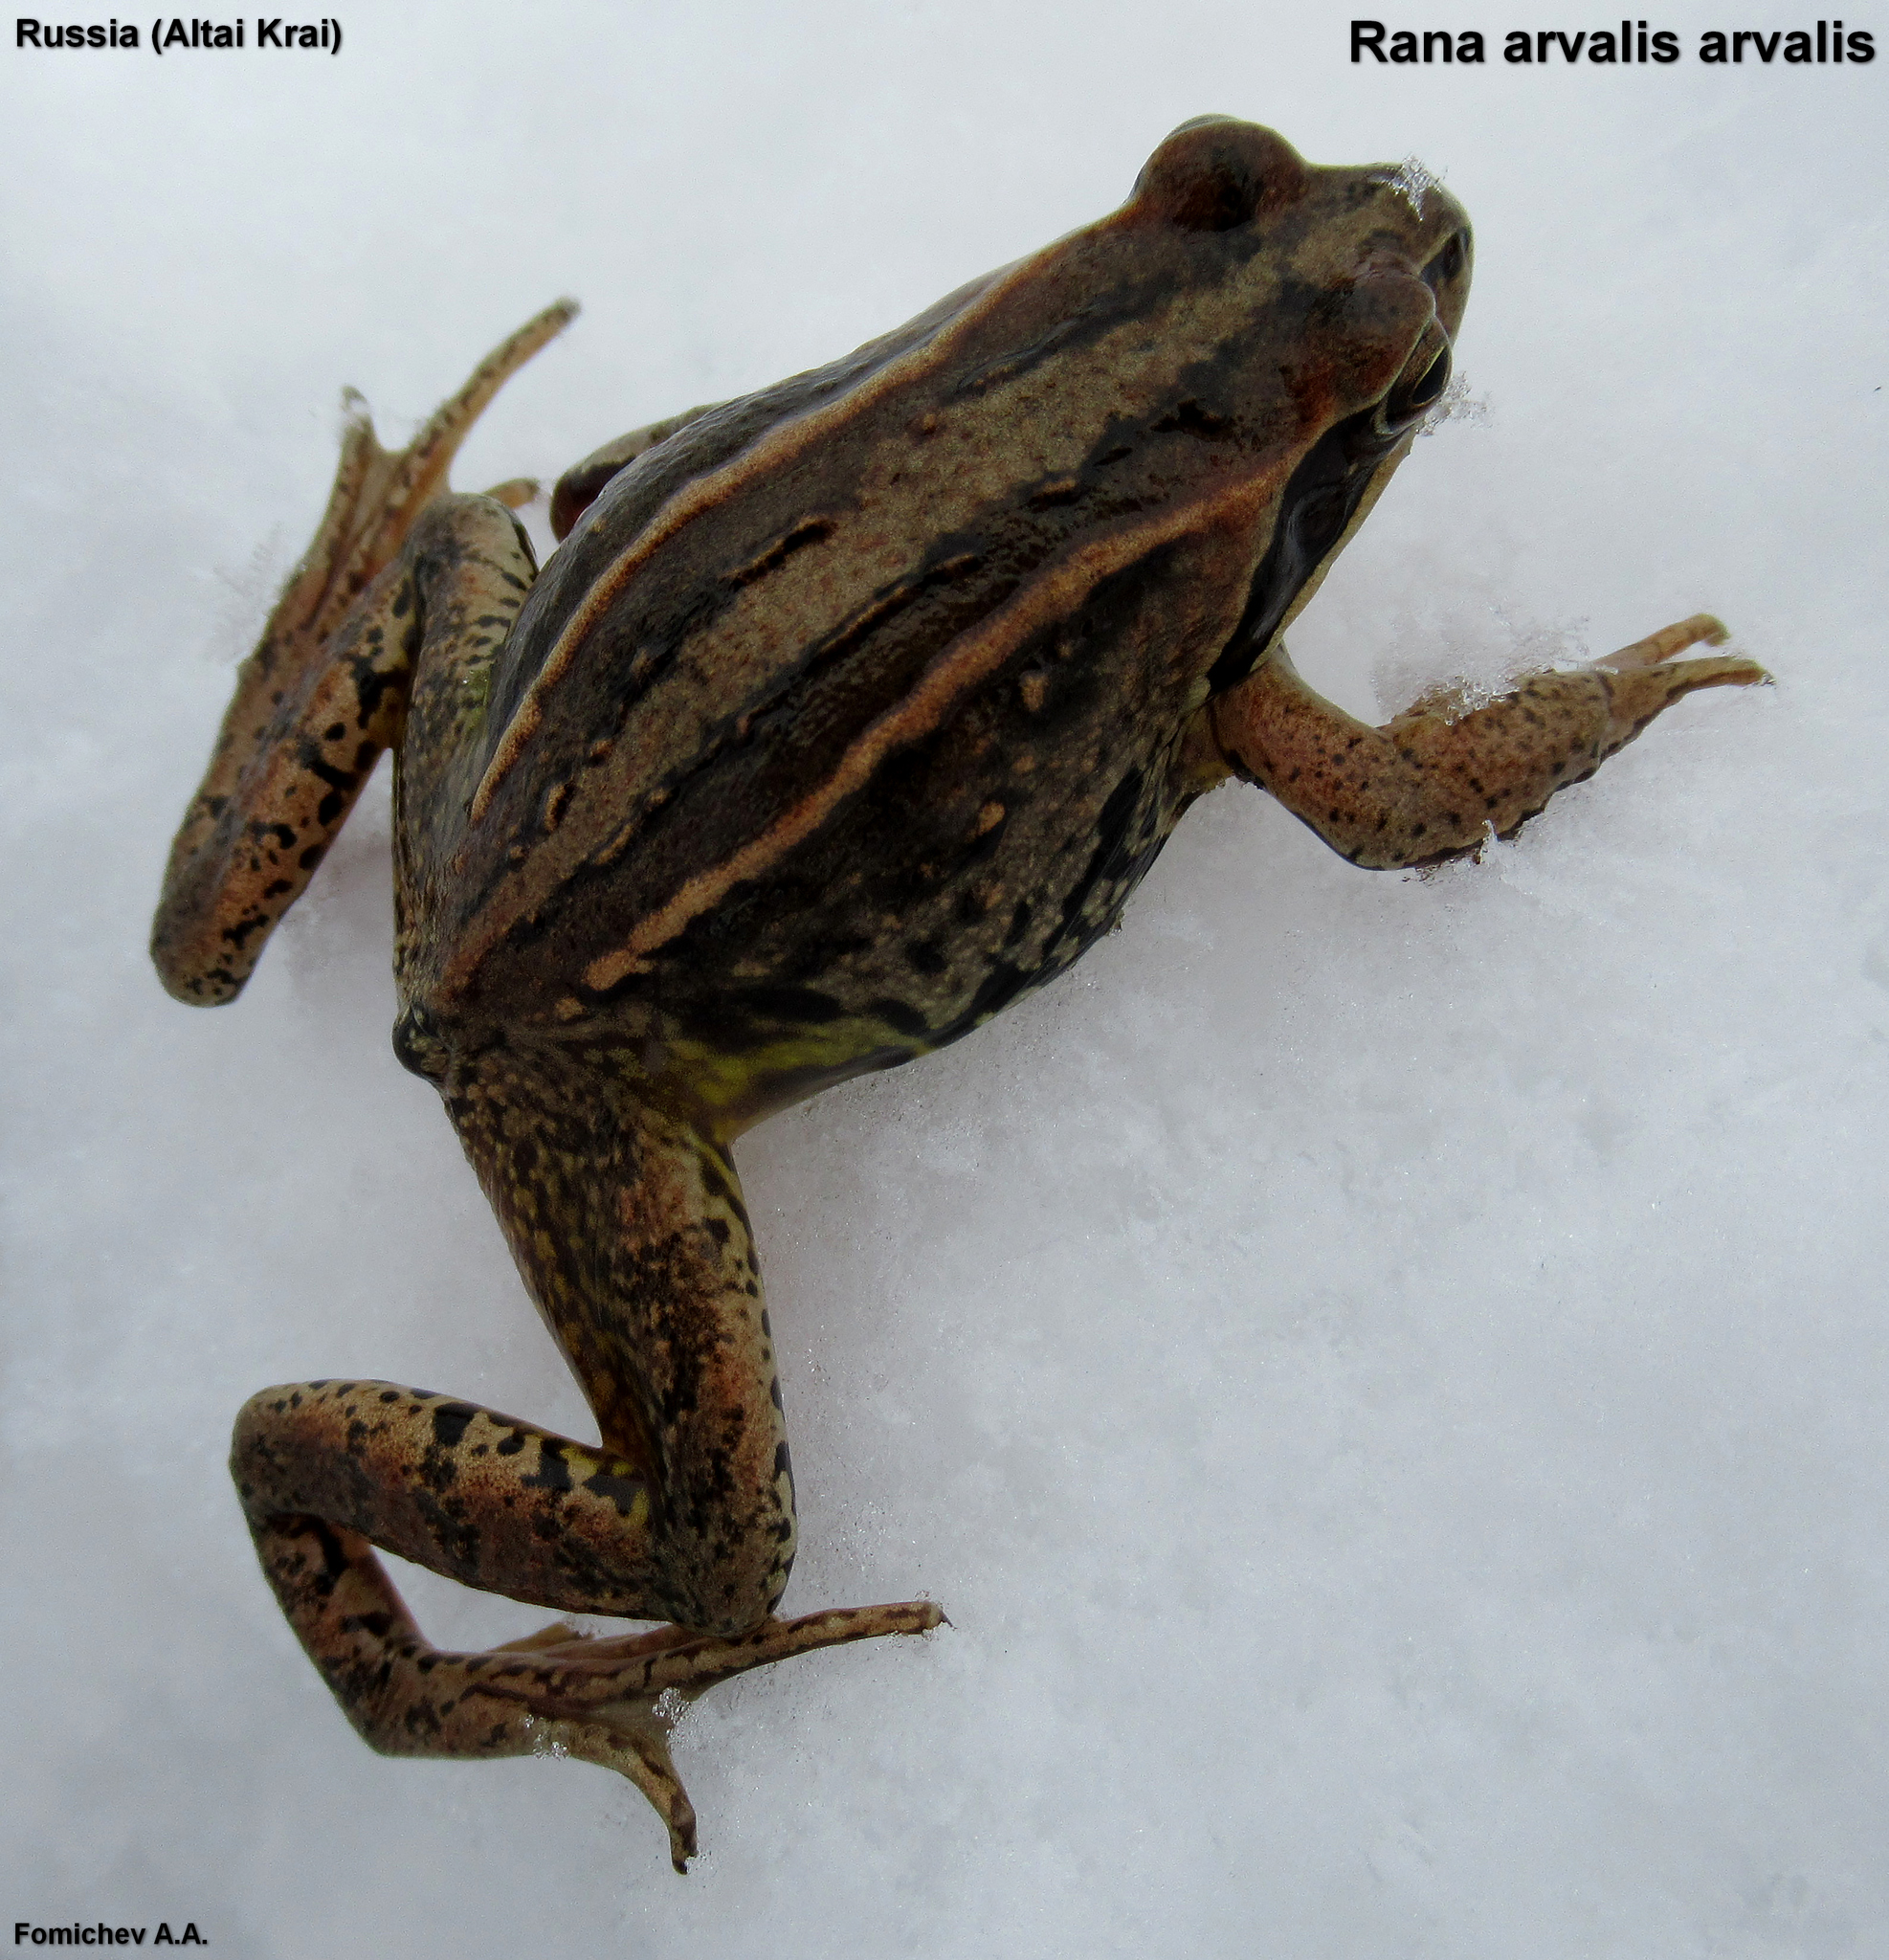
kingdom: Animalia
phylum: Chordata
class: Amphibia
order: Anura
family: Ranidae
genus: Rana
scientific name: Rana arvalis
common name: Moor frog
